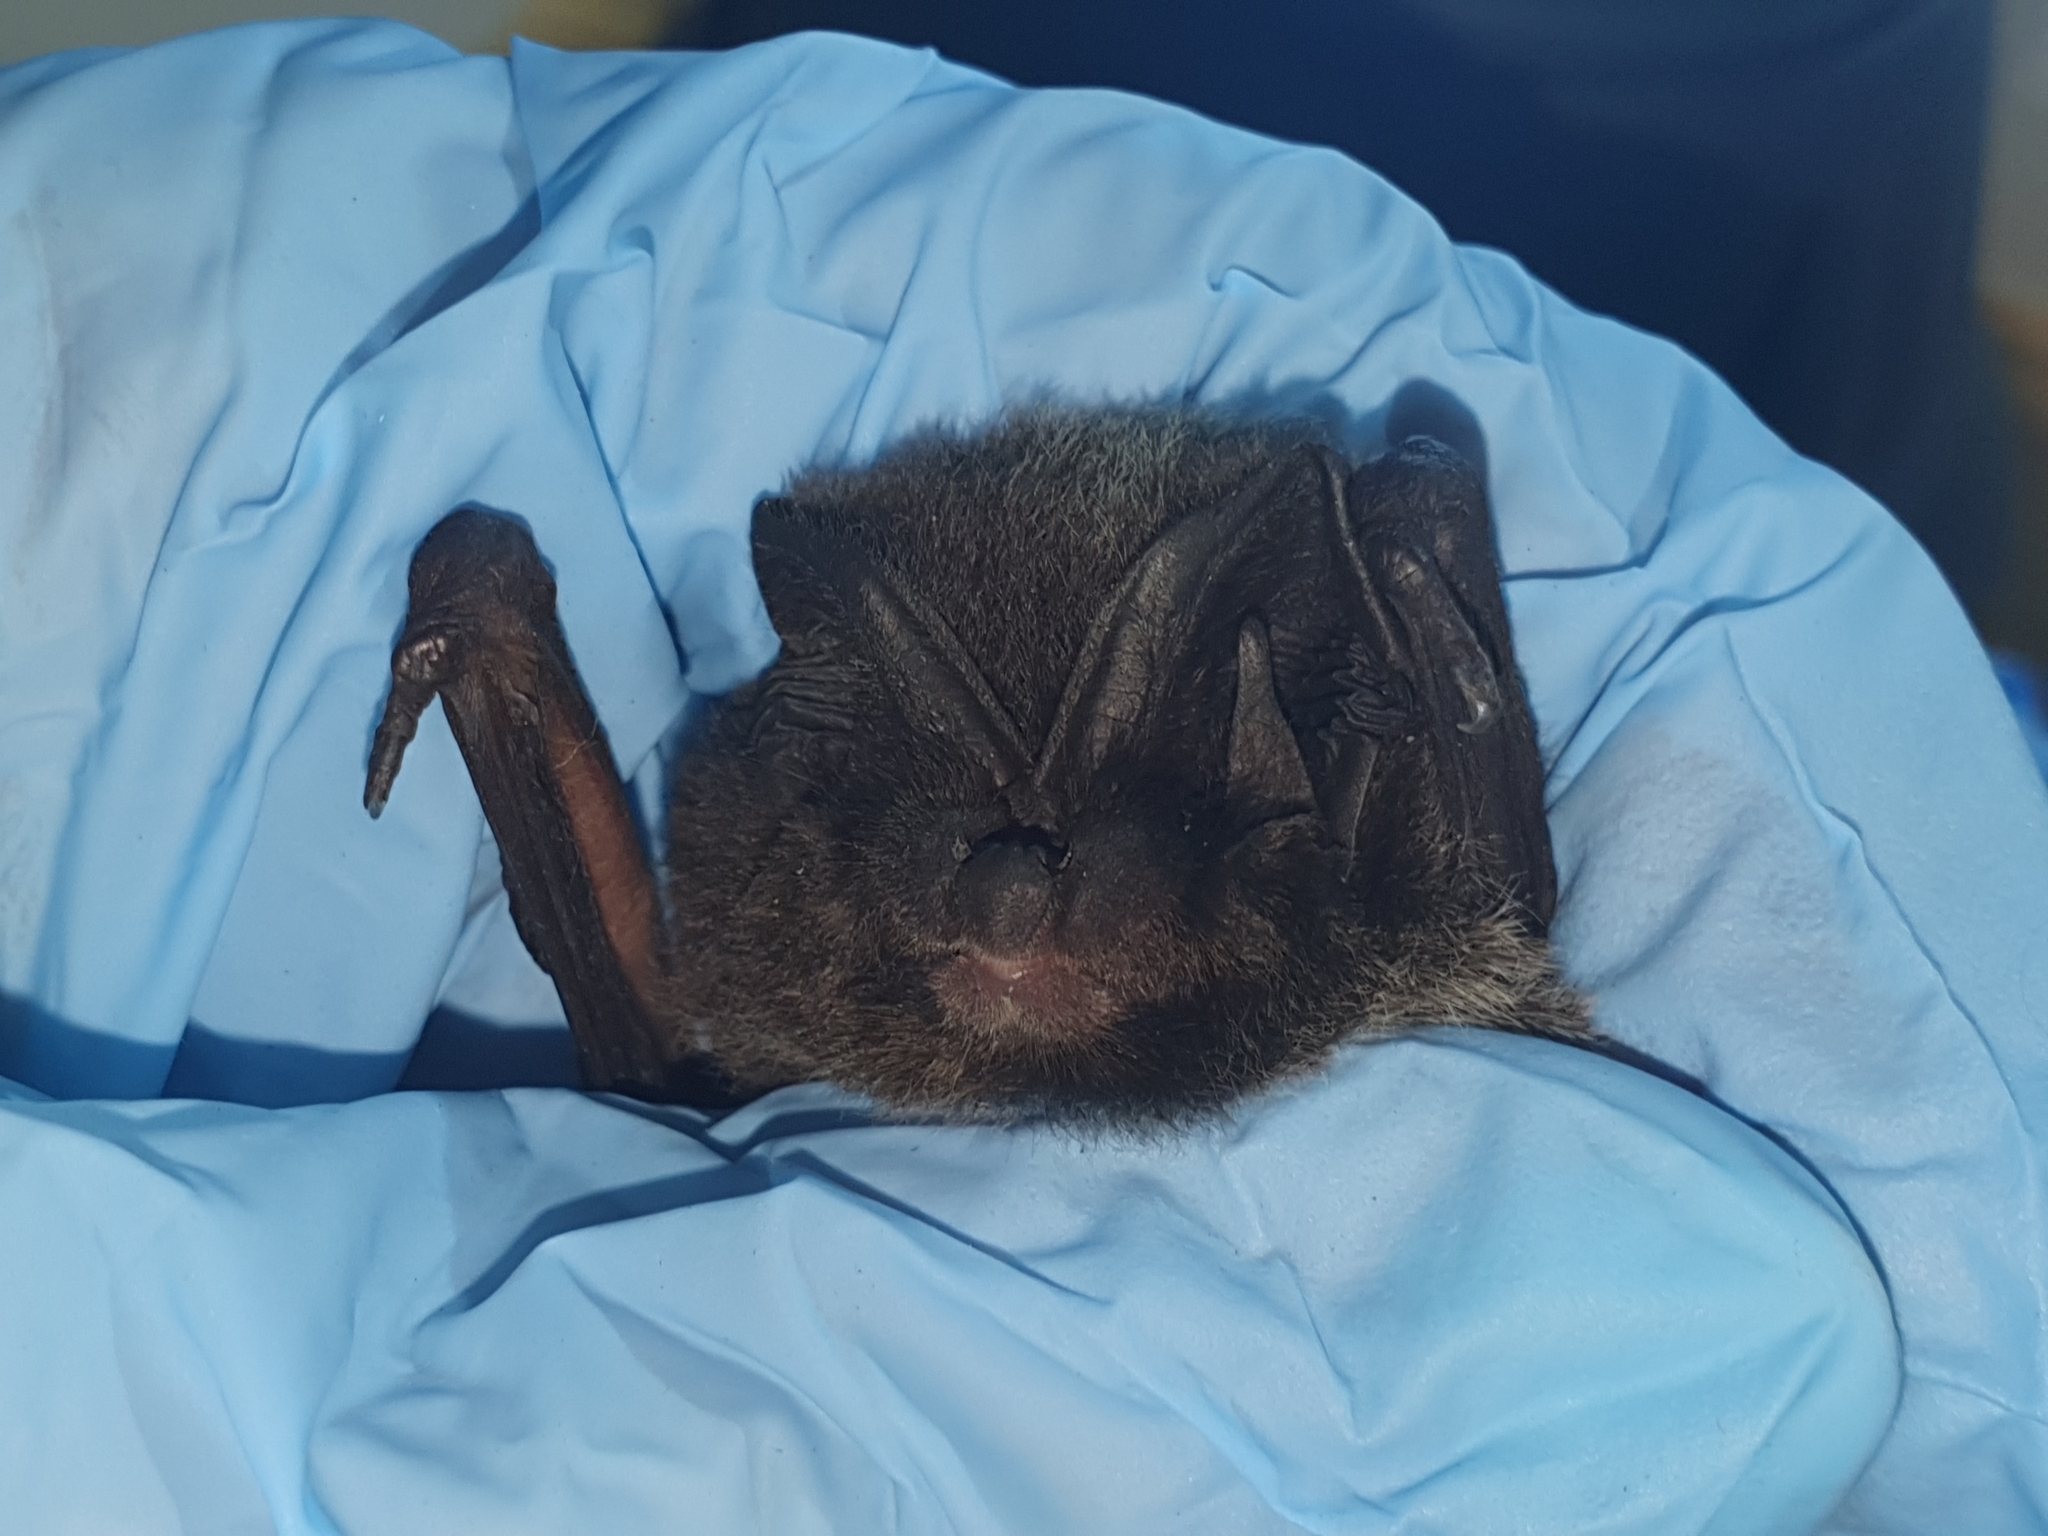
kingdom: Animalia
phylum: Chordata
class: Mammalia
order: Chiroptera
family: Vespertilionidae
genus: Barbastella
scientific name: Barbastella barbastellus
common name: Western barbastelle
